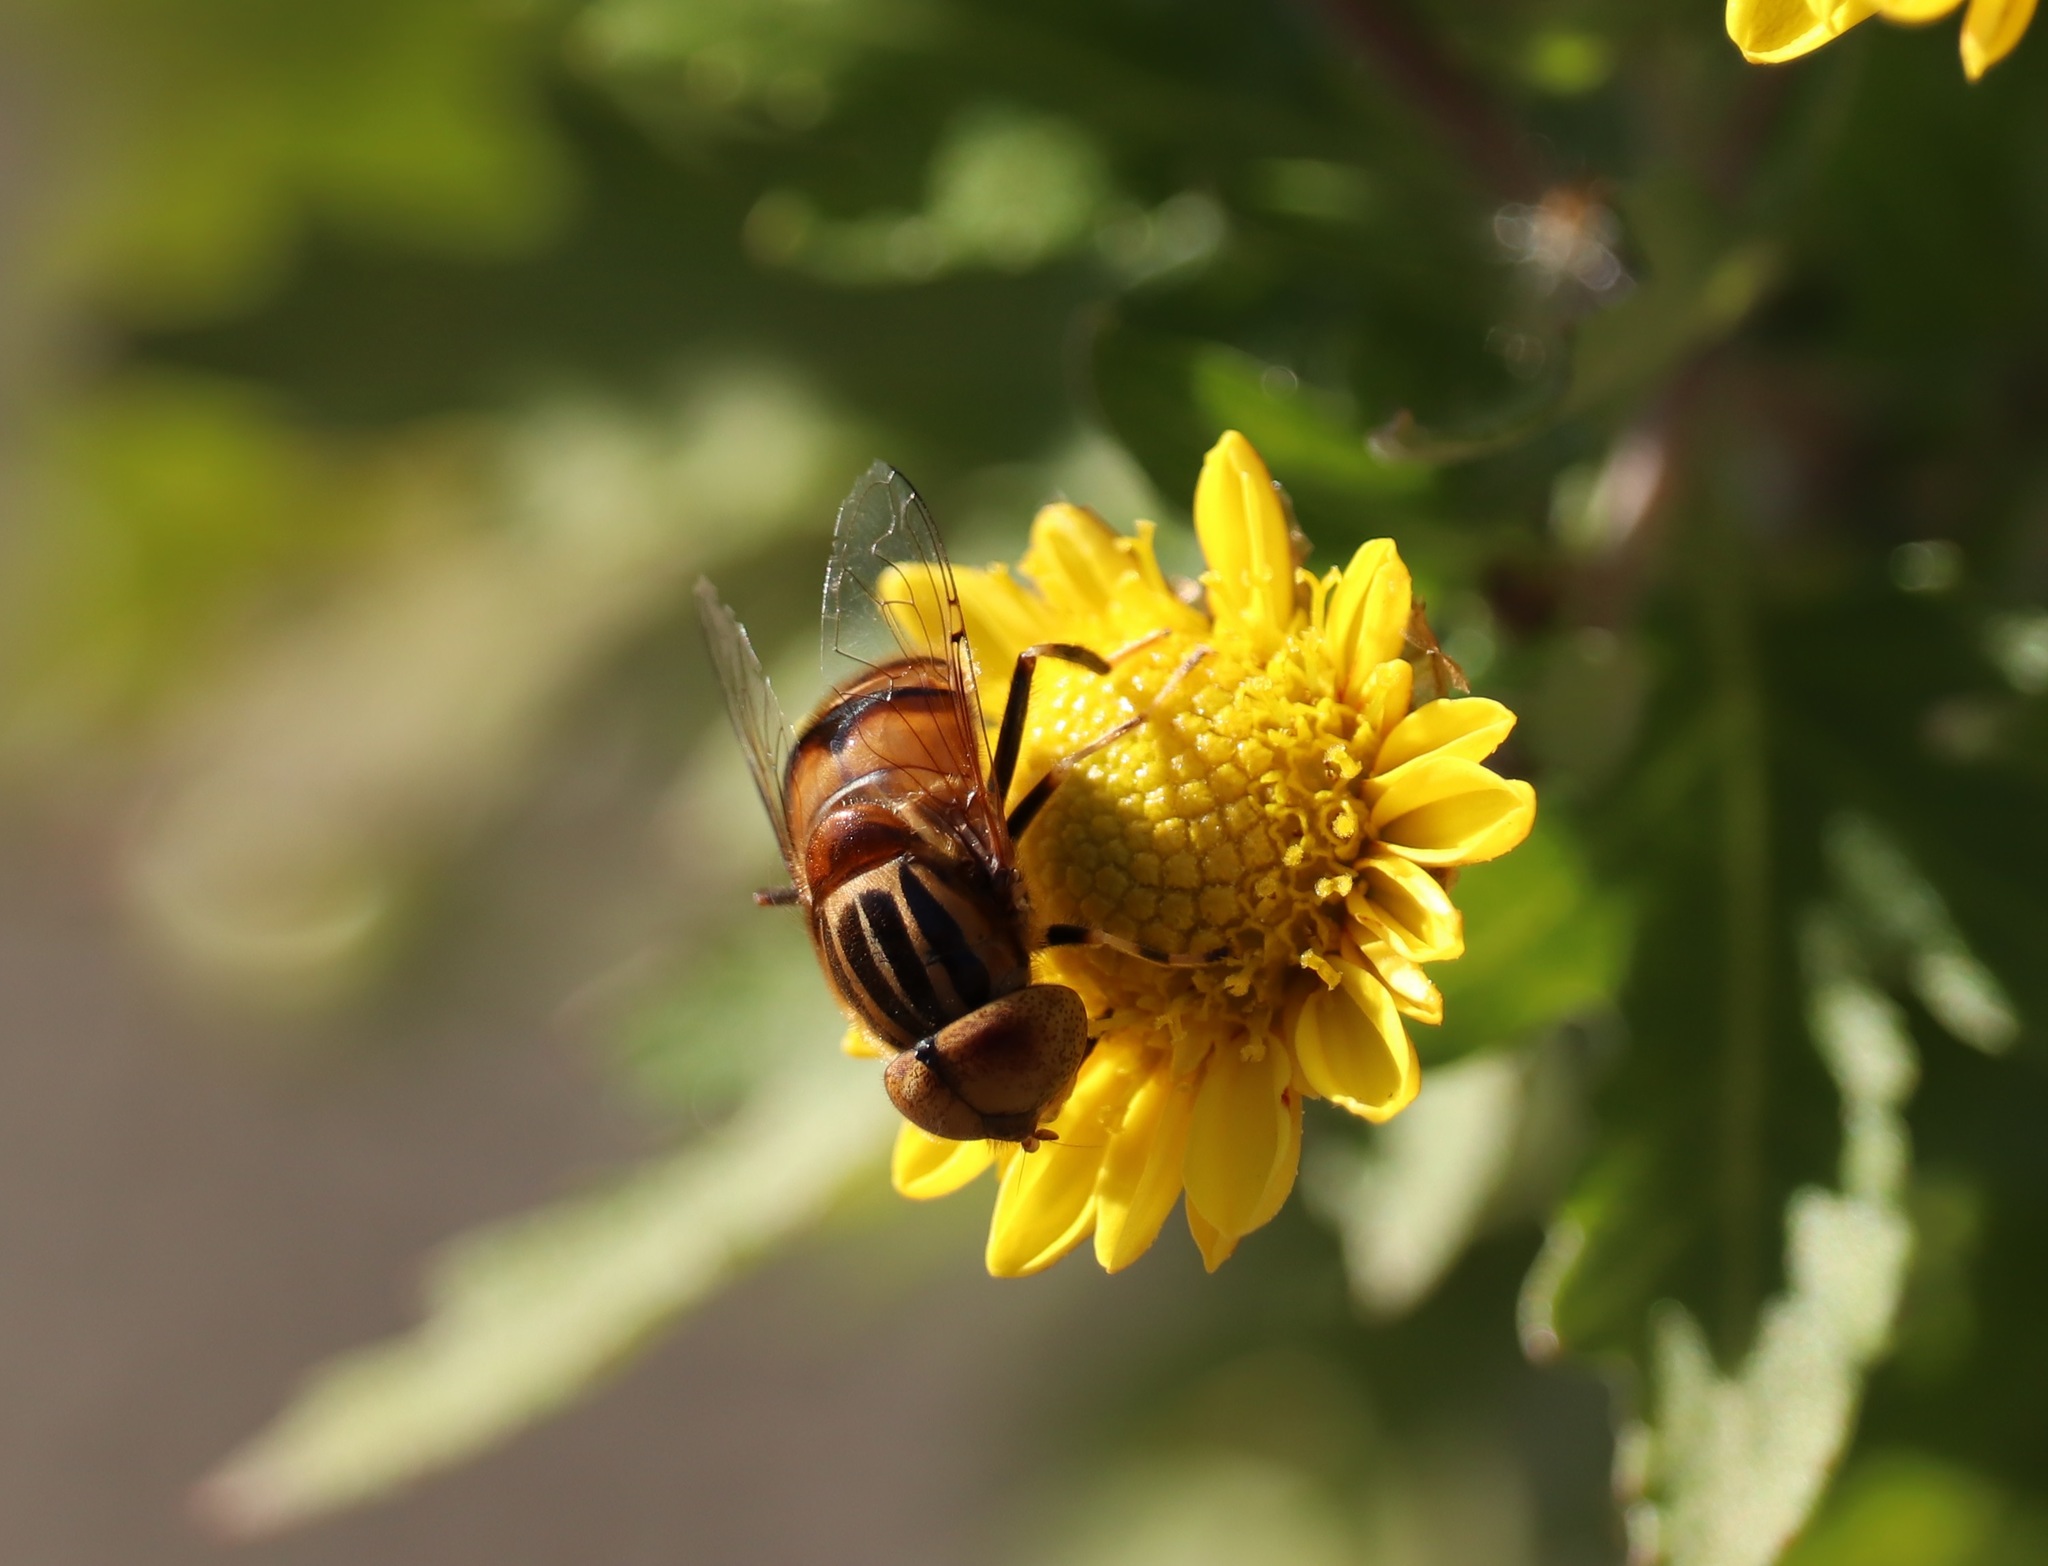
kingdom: Animalia
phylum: Arthropoda
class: Insecta
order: Diptera
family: Syrphidae
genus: Eristalinus
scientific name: Eristalinus quinquestriatus
